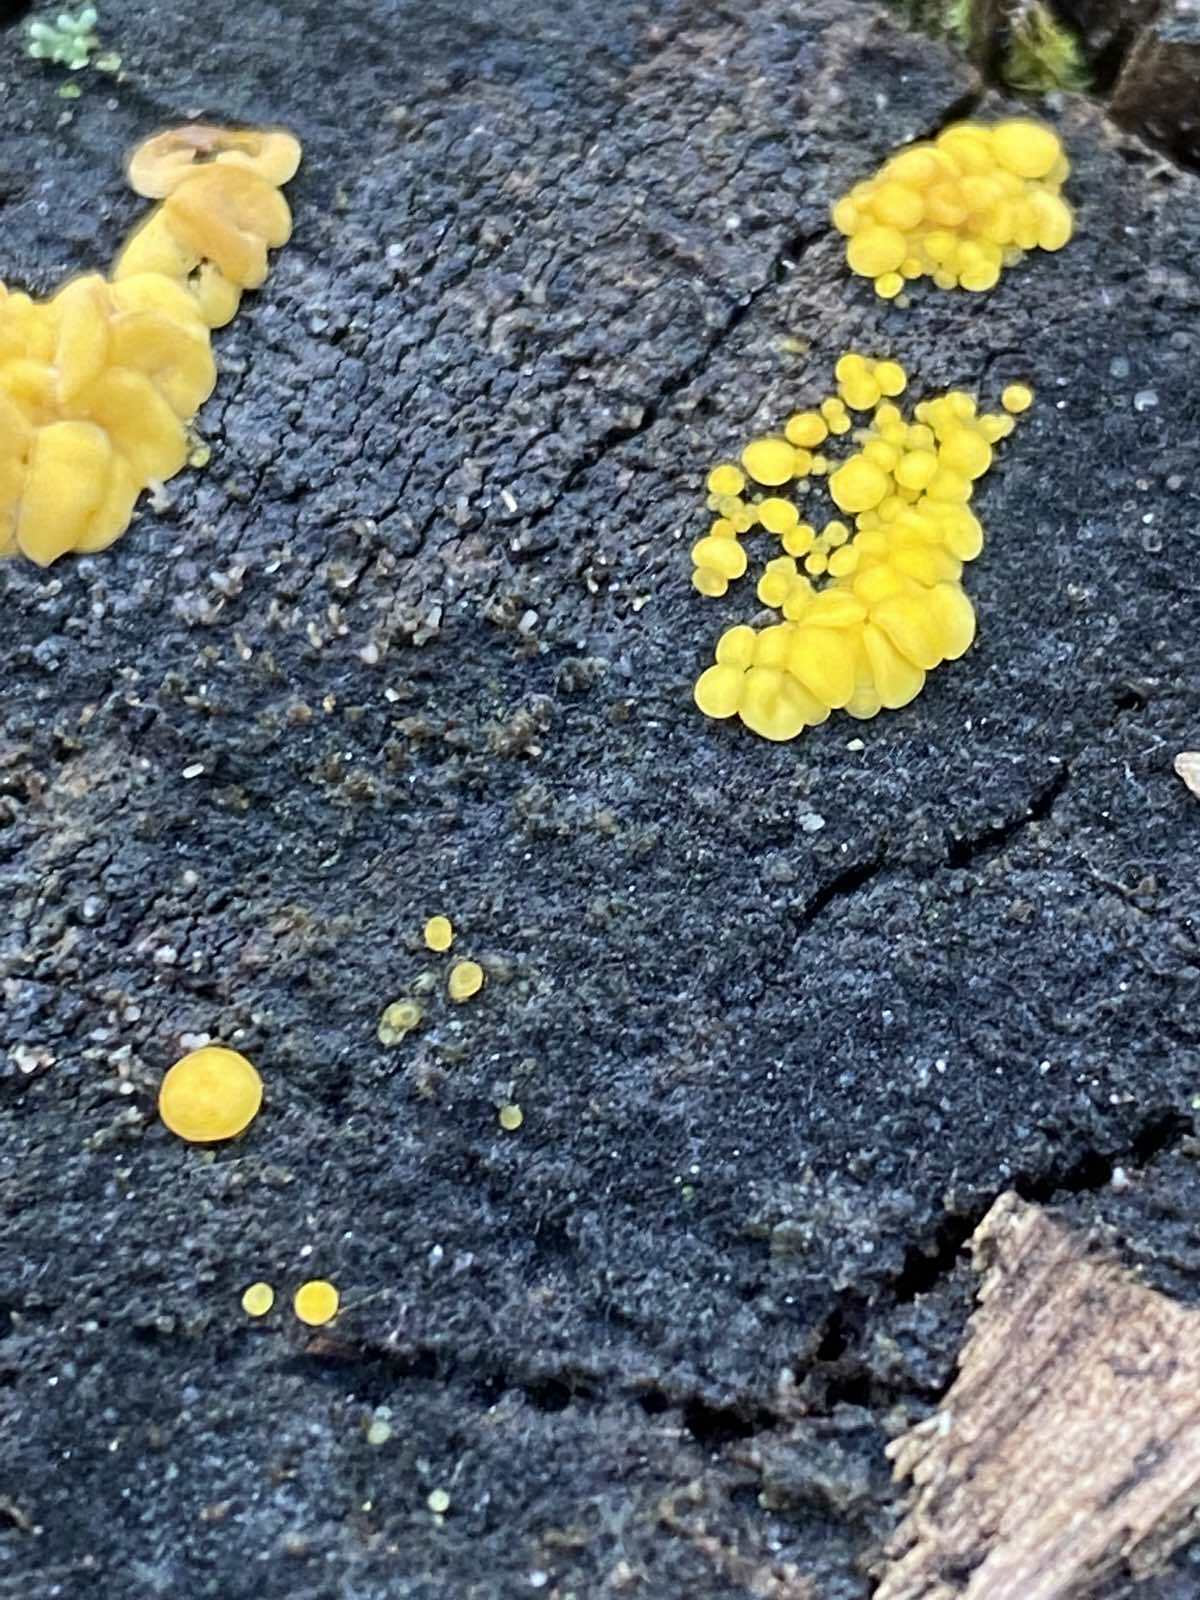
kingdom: Fungi
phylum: Ascomycota
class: Leotiomycetes
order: Helotiales
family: Pezizellaceae
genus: Calycina
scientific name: Calycina citrina
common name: Yellow fairy cups
